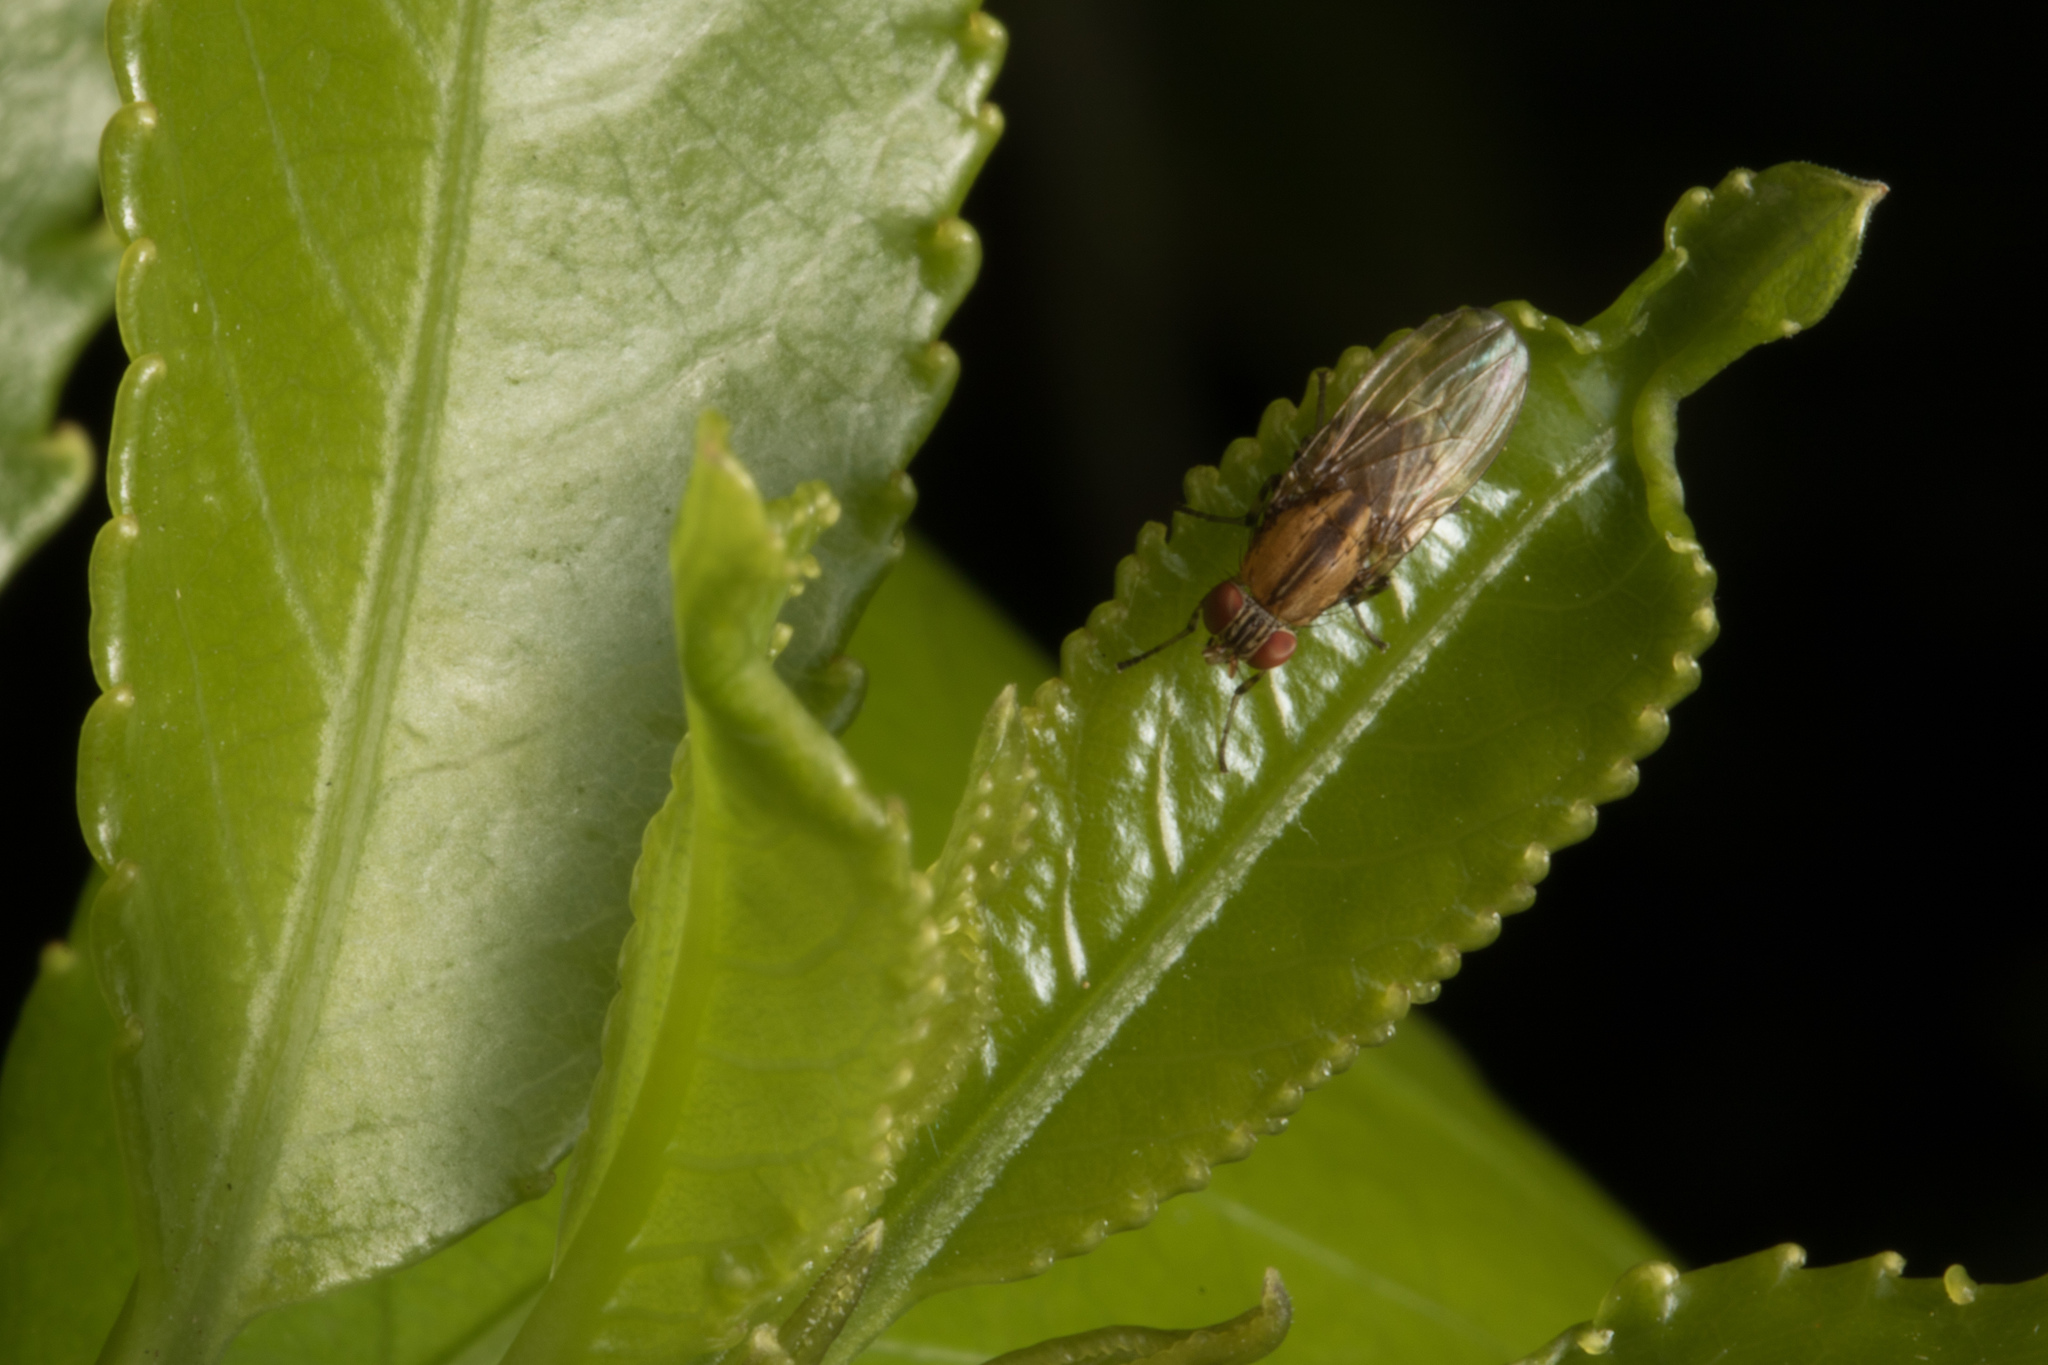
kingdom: Animalia
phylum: Arthropoda
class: Insecta
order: Diptera
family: Lauxaniidae
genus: Sapromyza
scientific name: Sapromyza neozelandica
